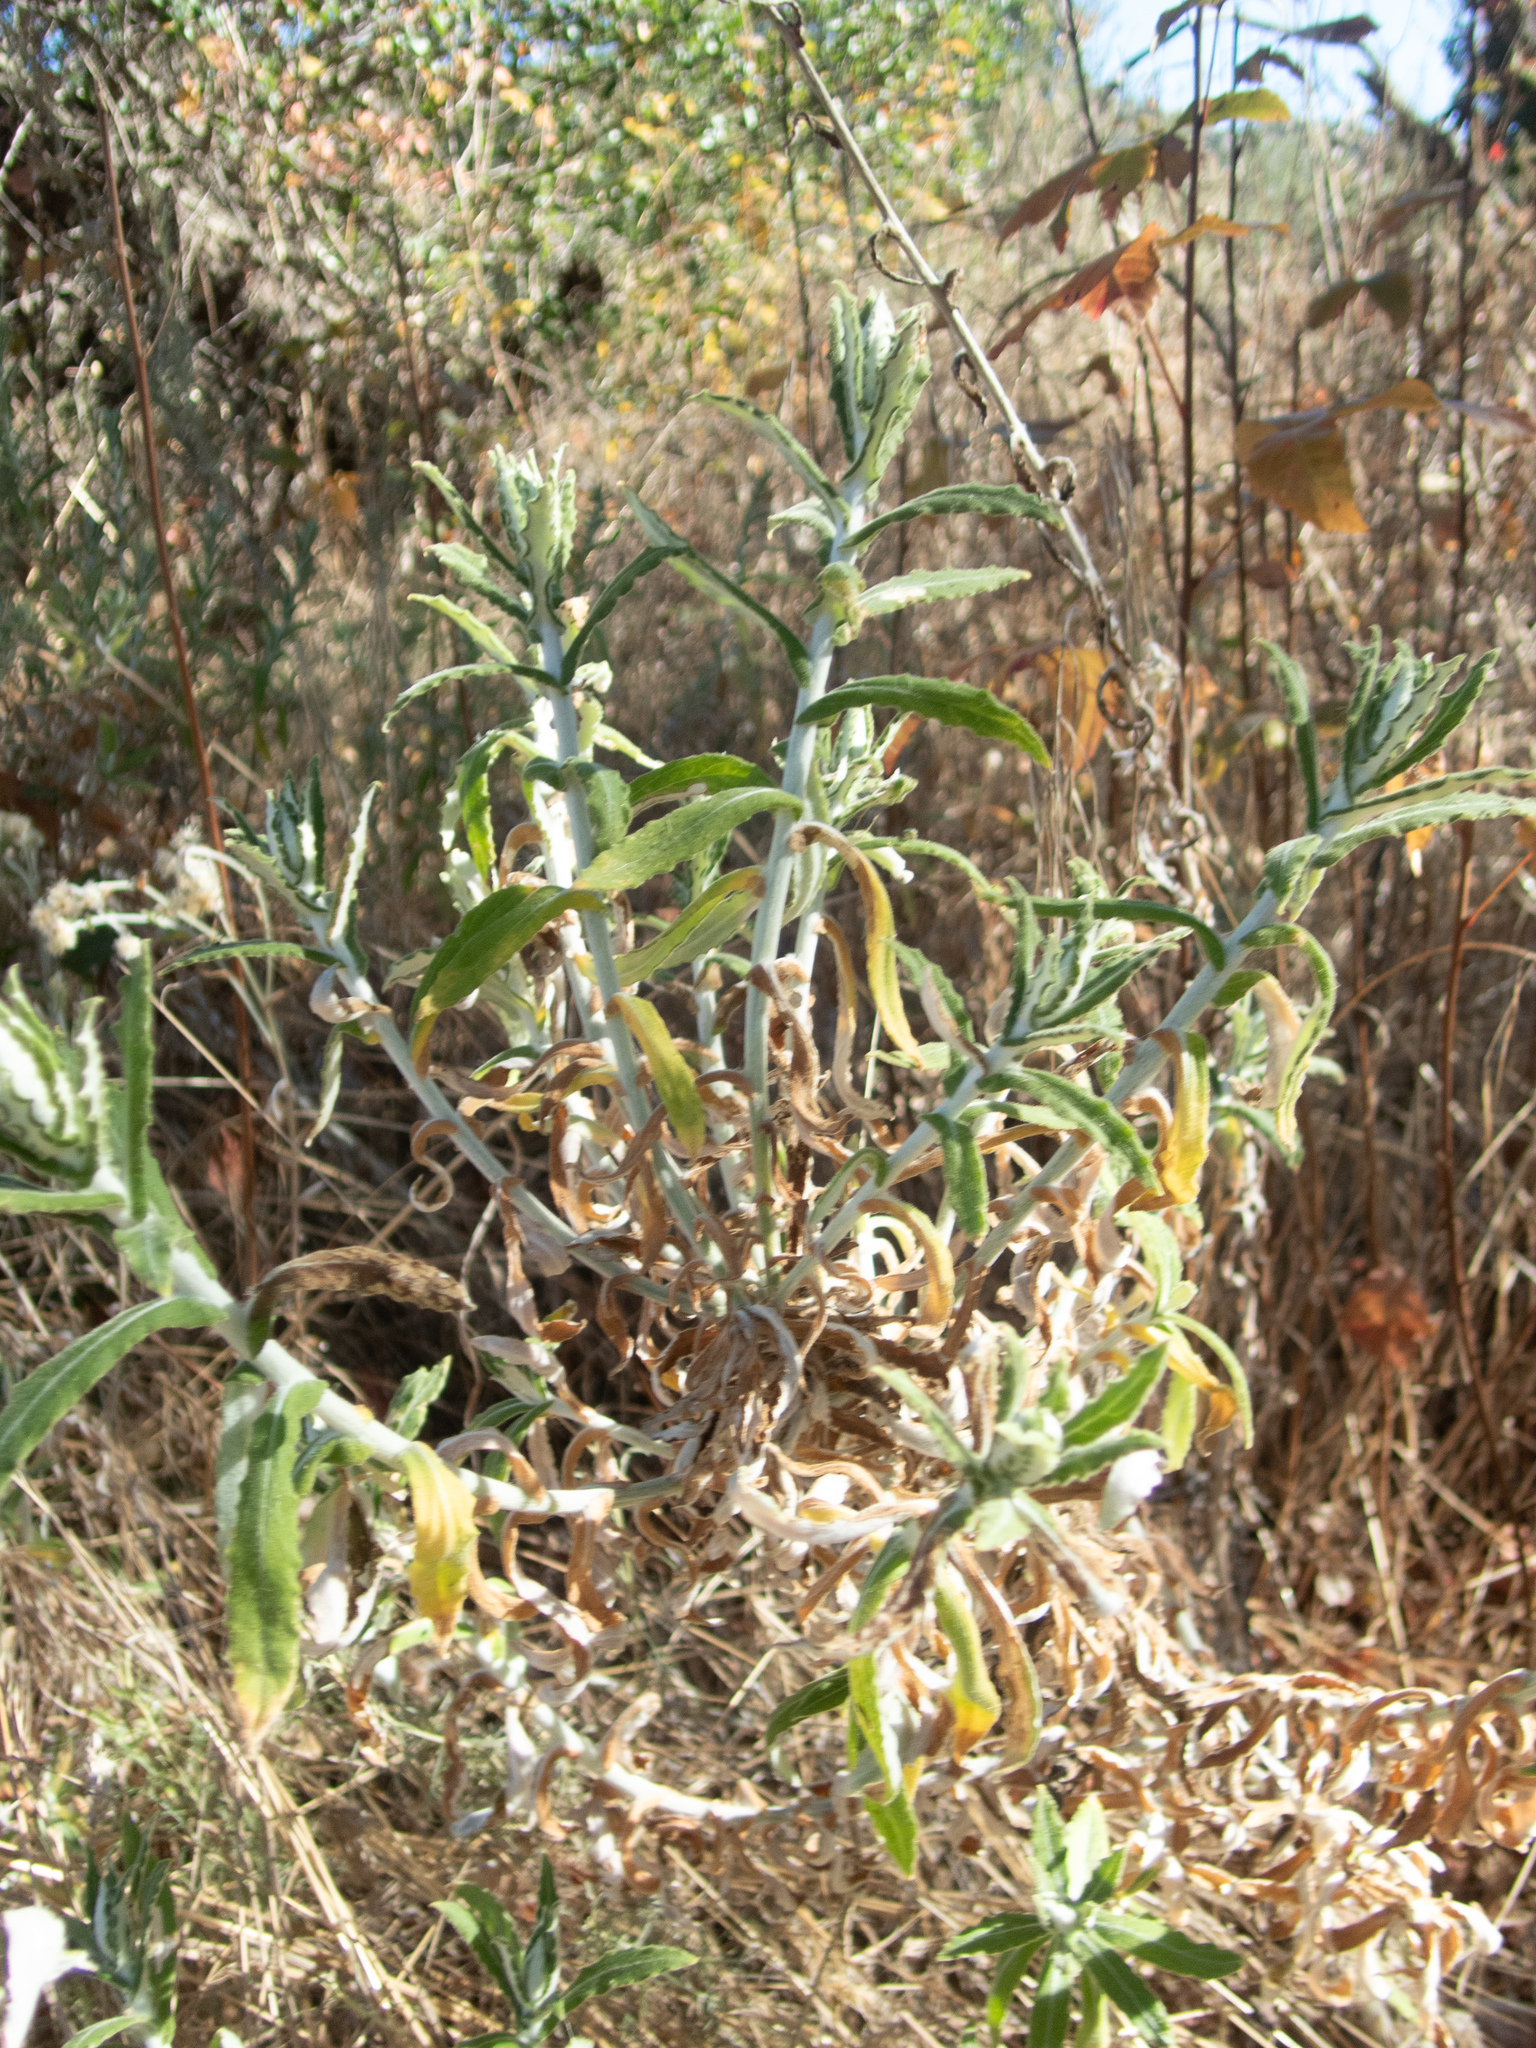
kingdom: Plantae
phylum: Tracheophyta
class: Magnoliopsida
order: Asterales
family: Asteraceae
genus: Pseudognaphalium
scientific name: Pseudognaphalium biolettii
